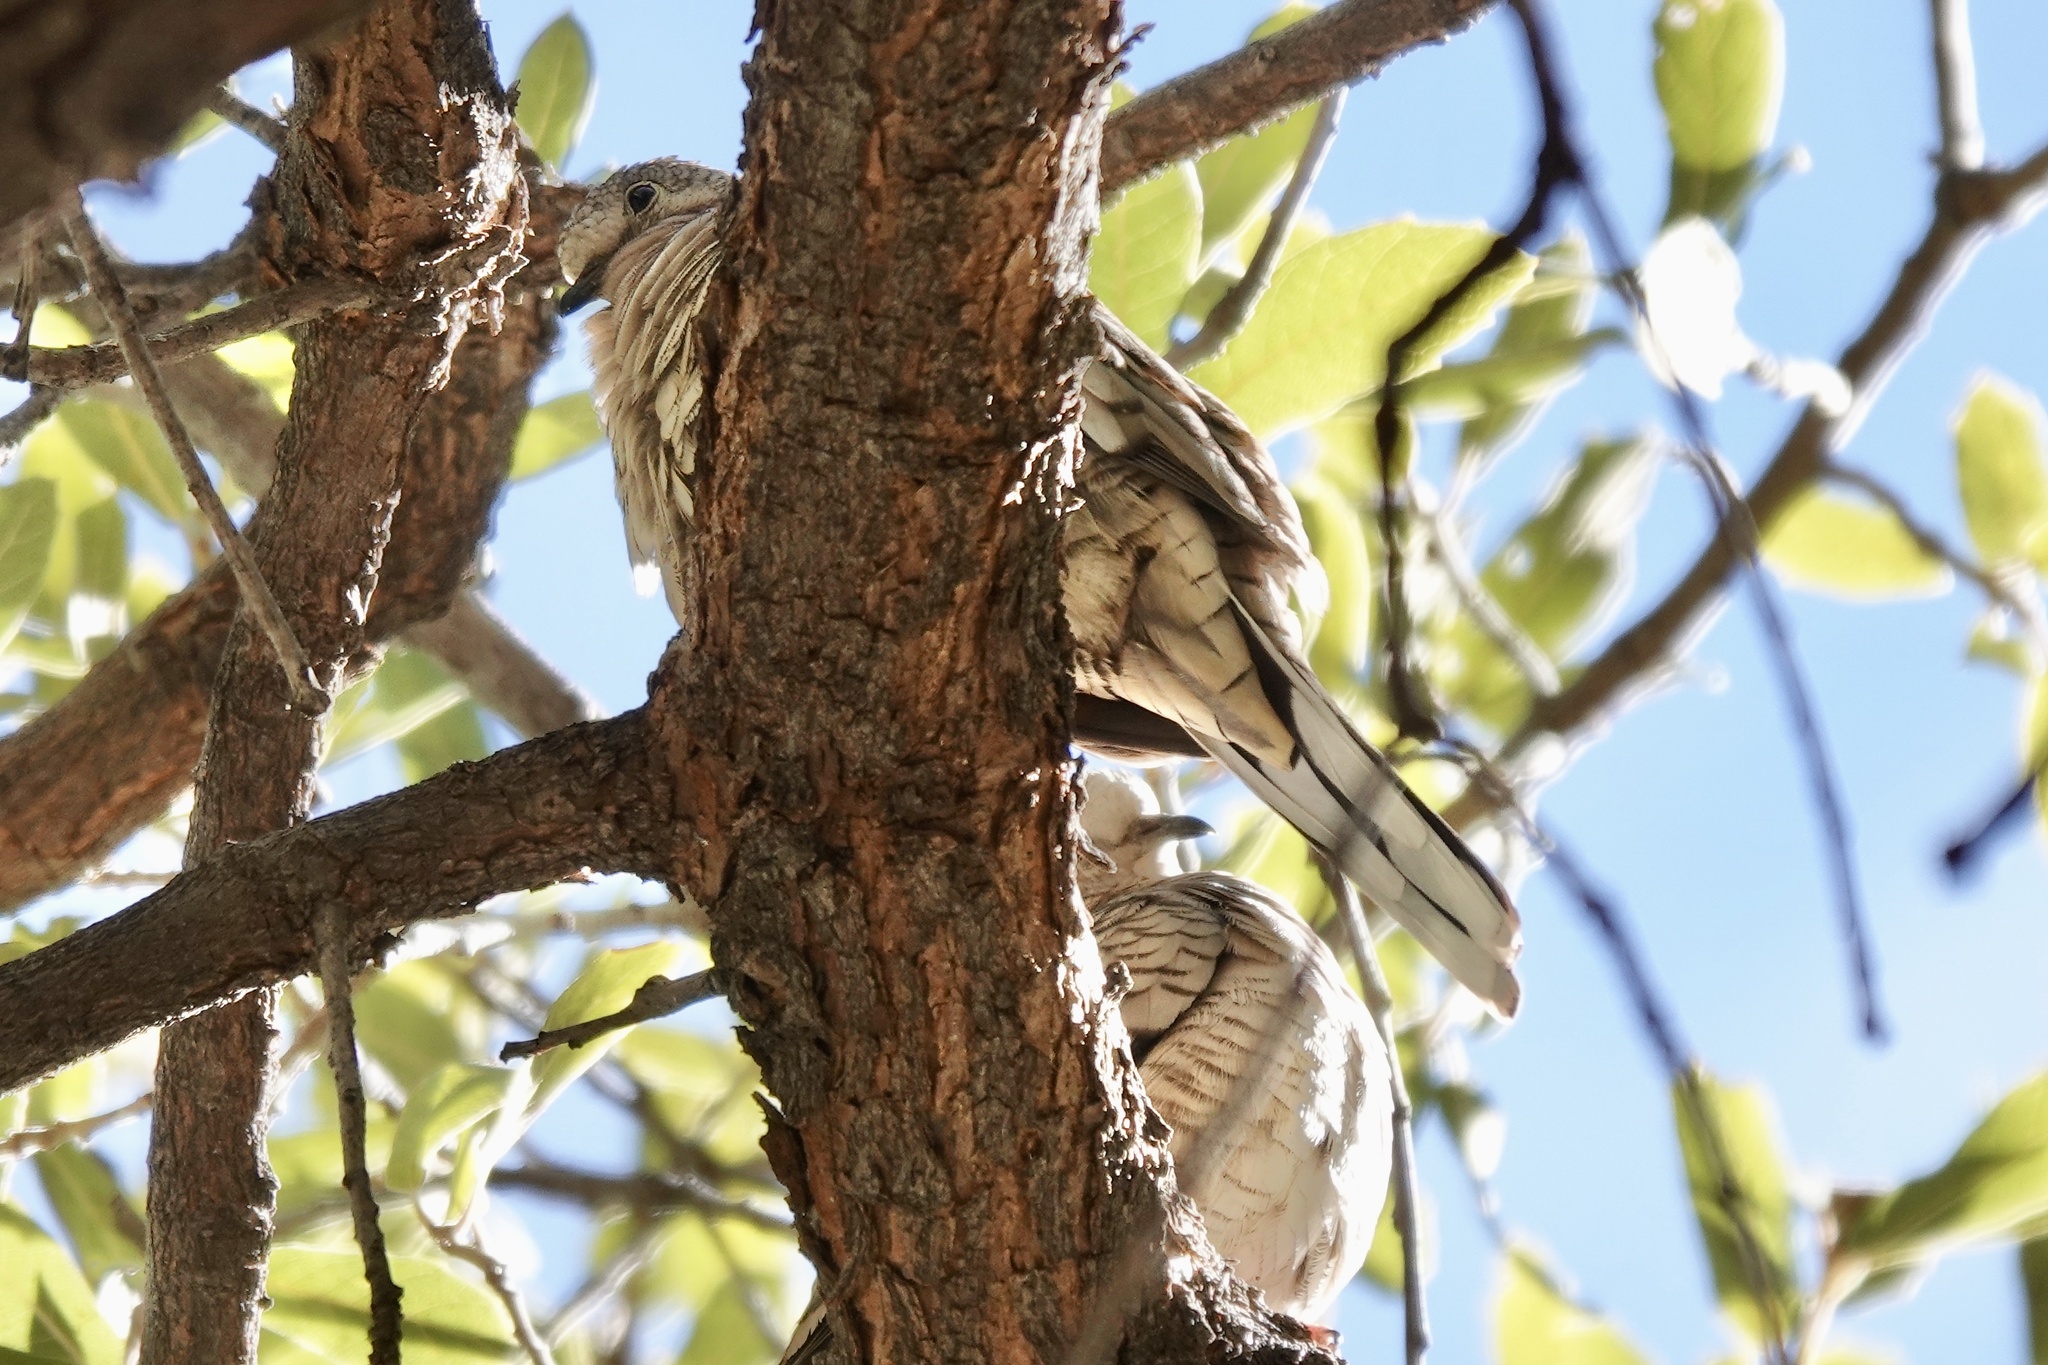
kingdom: Animalia
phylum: Chordata
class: Aves
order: Columbiformes
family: Columbidae
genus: Columbina
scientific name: Columbina inca
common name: Inca dove
